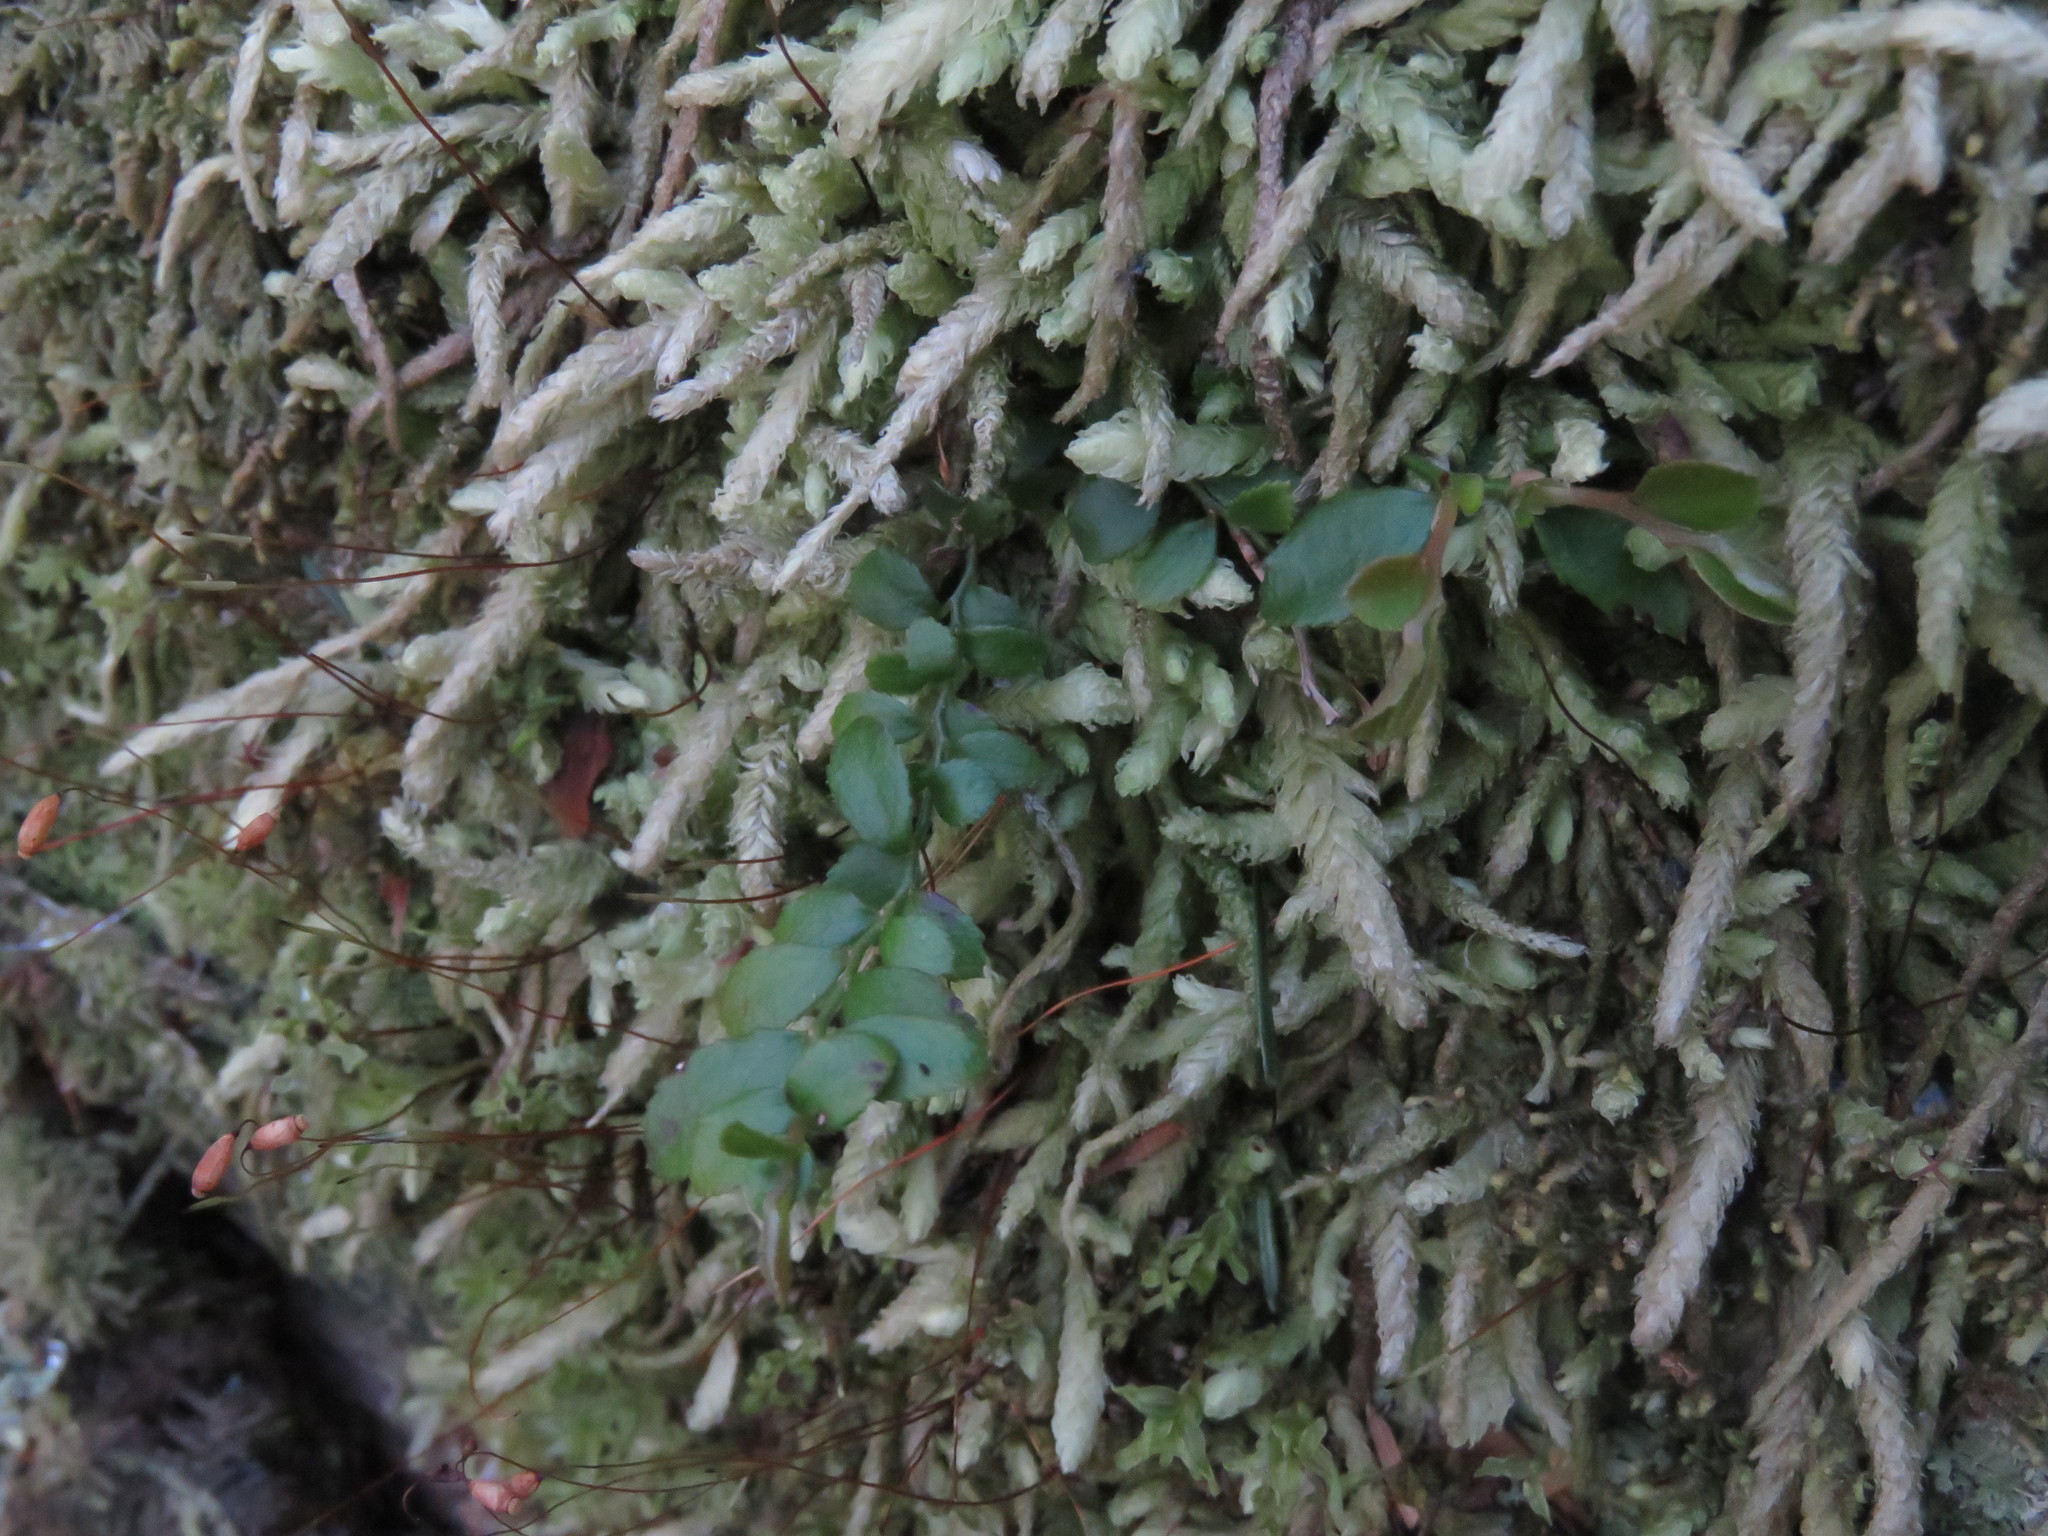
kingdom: Plantae
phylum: Bryophyta
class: Bryopsida
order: Hypnales
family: Plagiotheciaceae
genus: Plagiothecium
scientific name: Plagiothecium undulatum
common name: Waved silk-moss
